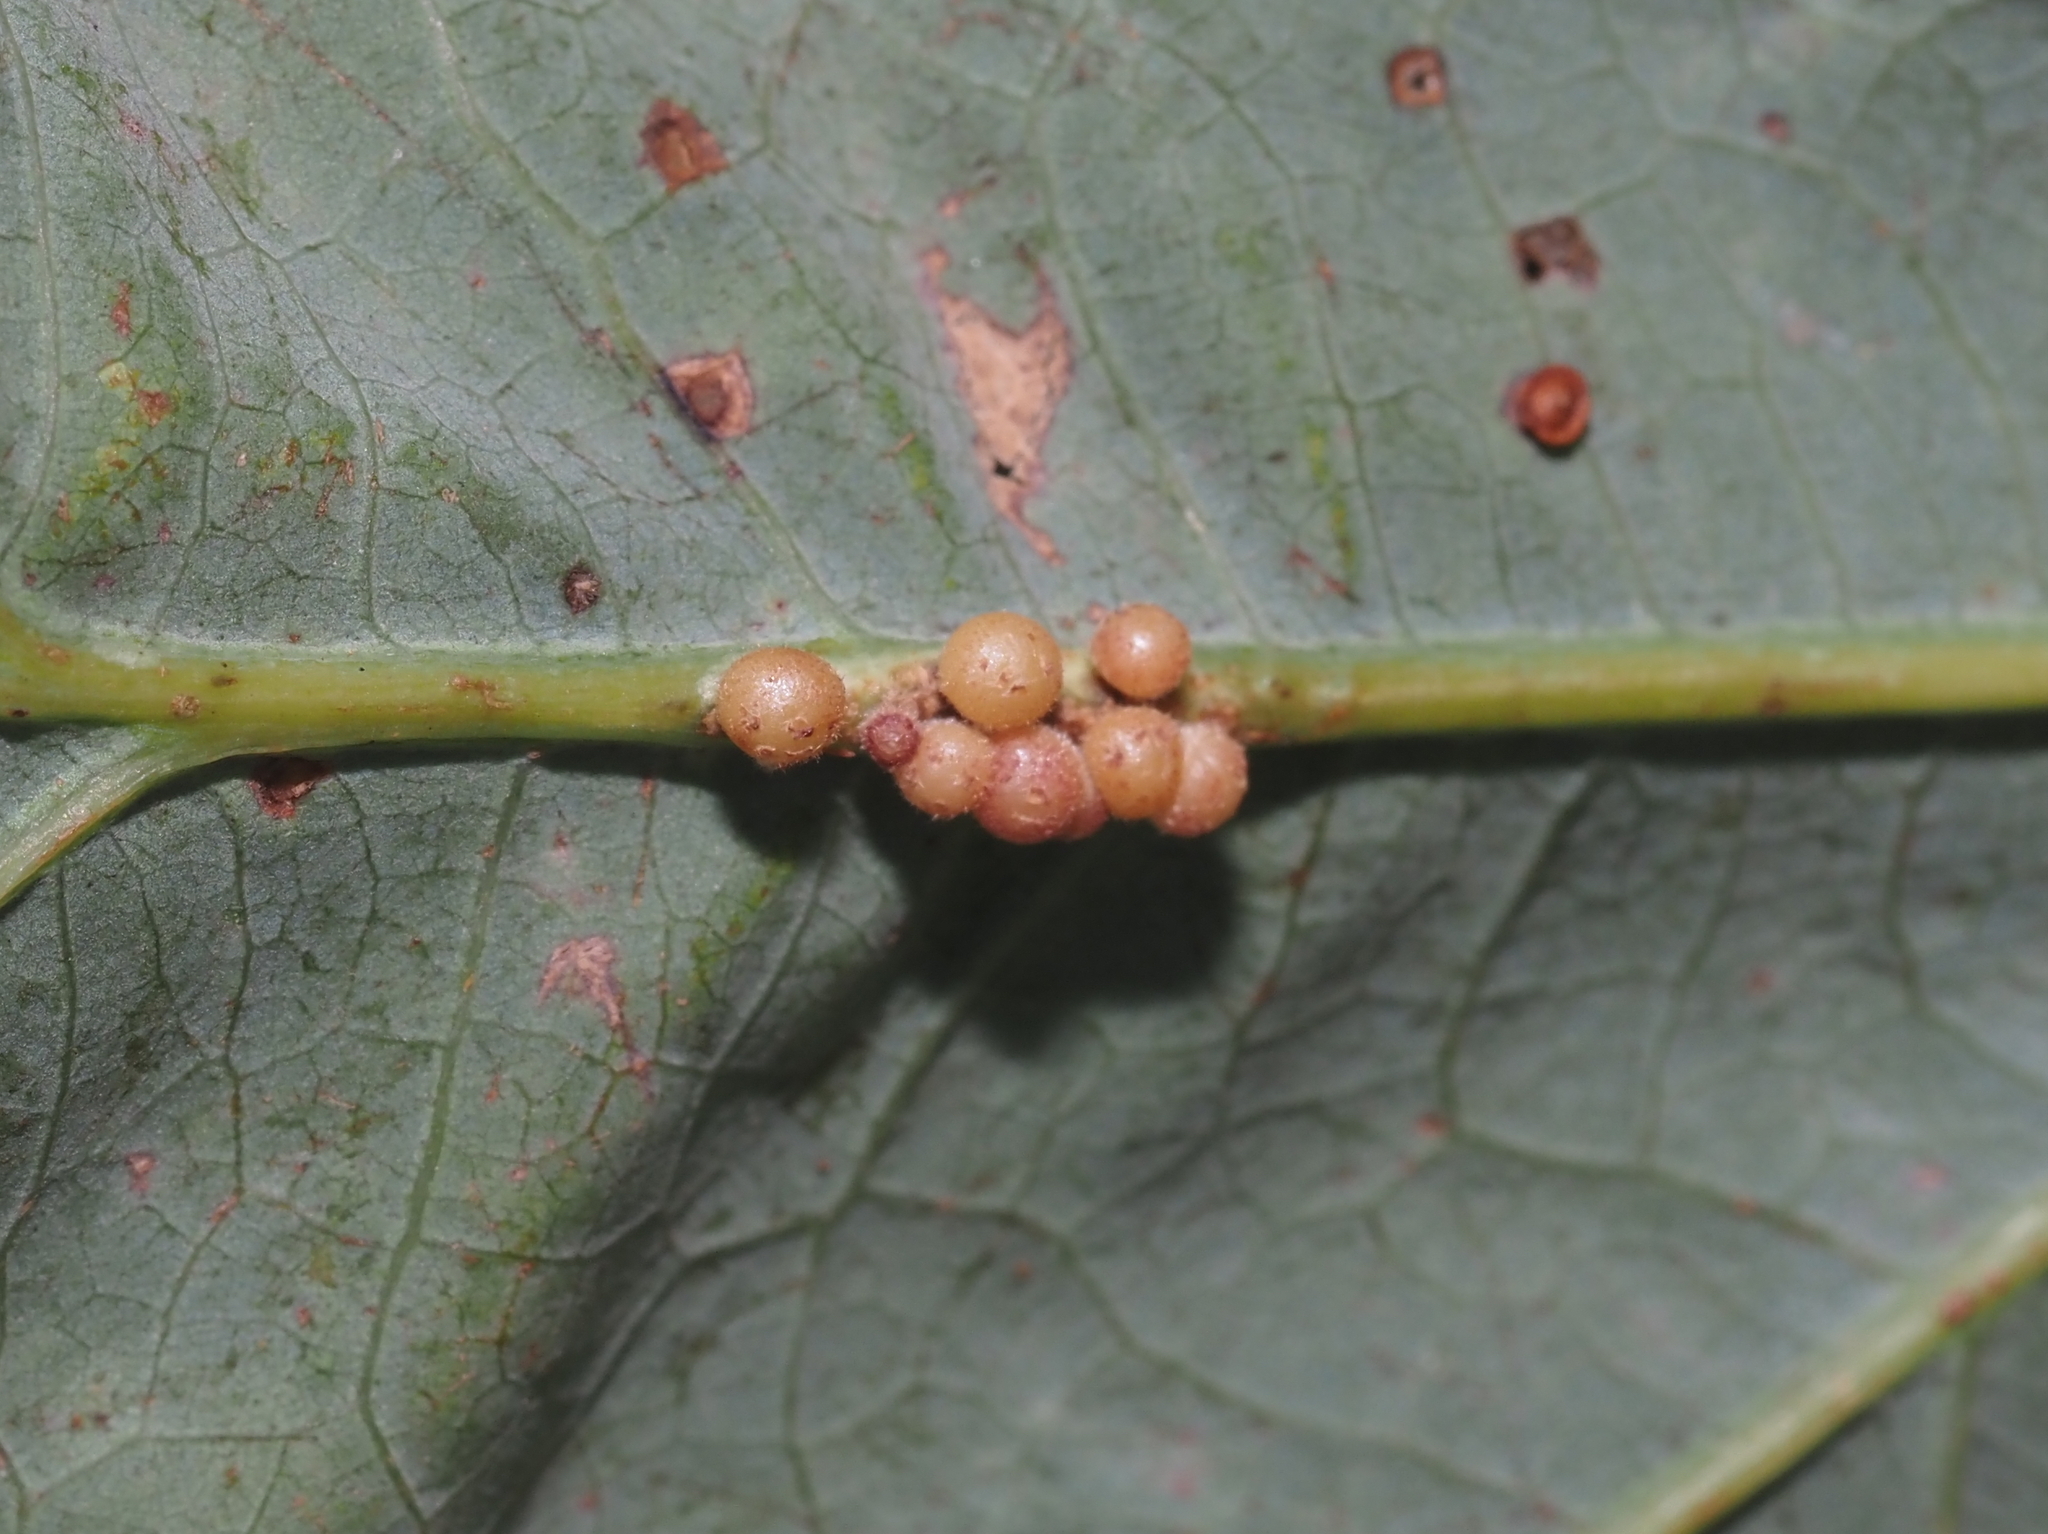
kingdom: Animalia
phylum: Arthropoda
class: Insecta
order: Hymenoptera
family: Cynipidae
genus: Andricus
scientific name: Andricus
